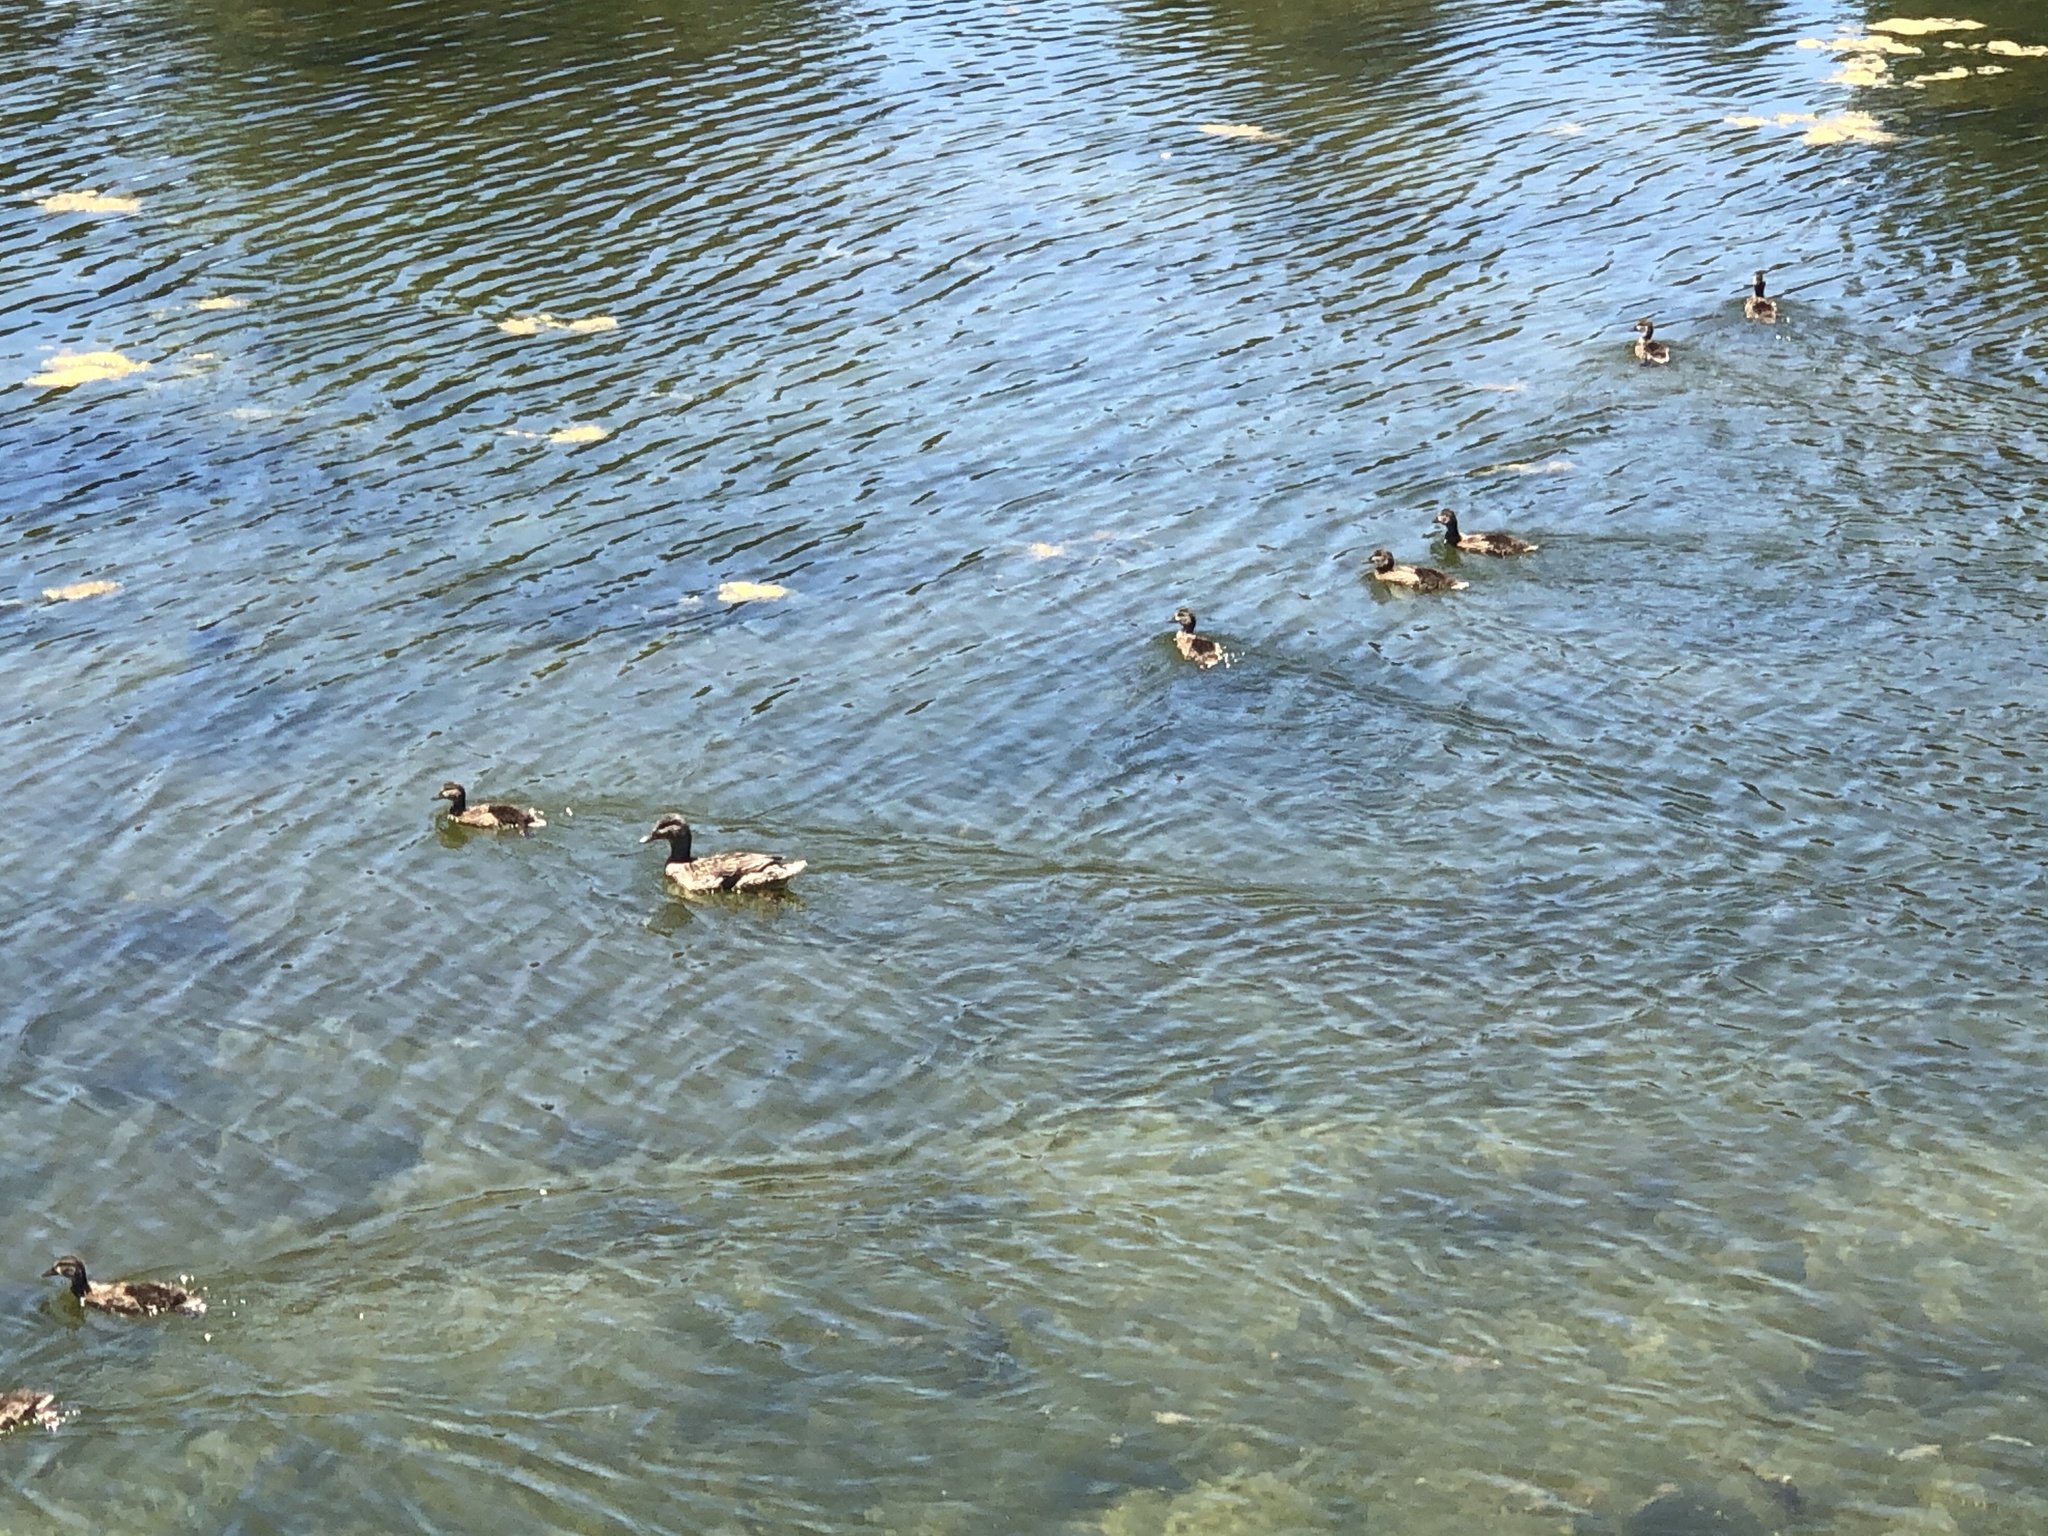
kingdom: Animalia
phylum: Chordata
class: Aves
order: Anseriformes
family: Anatidae
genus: Anas
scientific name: Anas platyrhynchos
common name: Mallard
